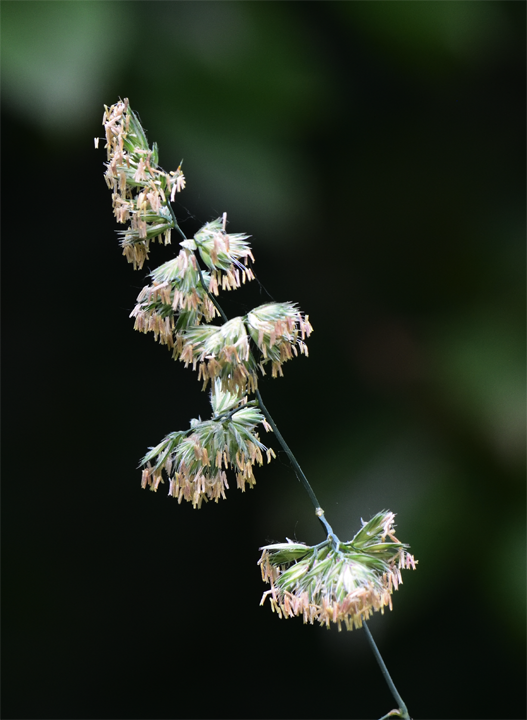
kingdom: Plantae
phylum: Tracheophyta
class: Liliopsida
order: Poales
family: Poaceae
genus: Dactylis
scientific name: Dactylis glomerata
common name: Orchardgrass
